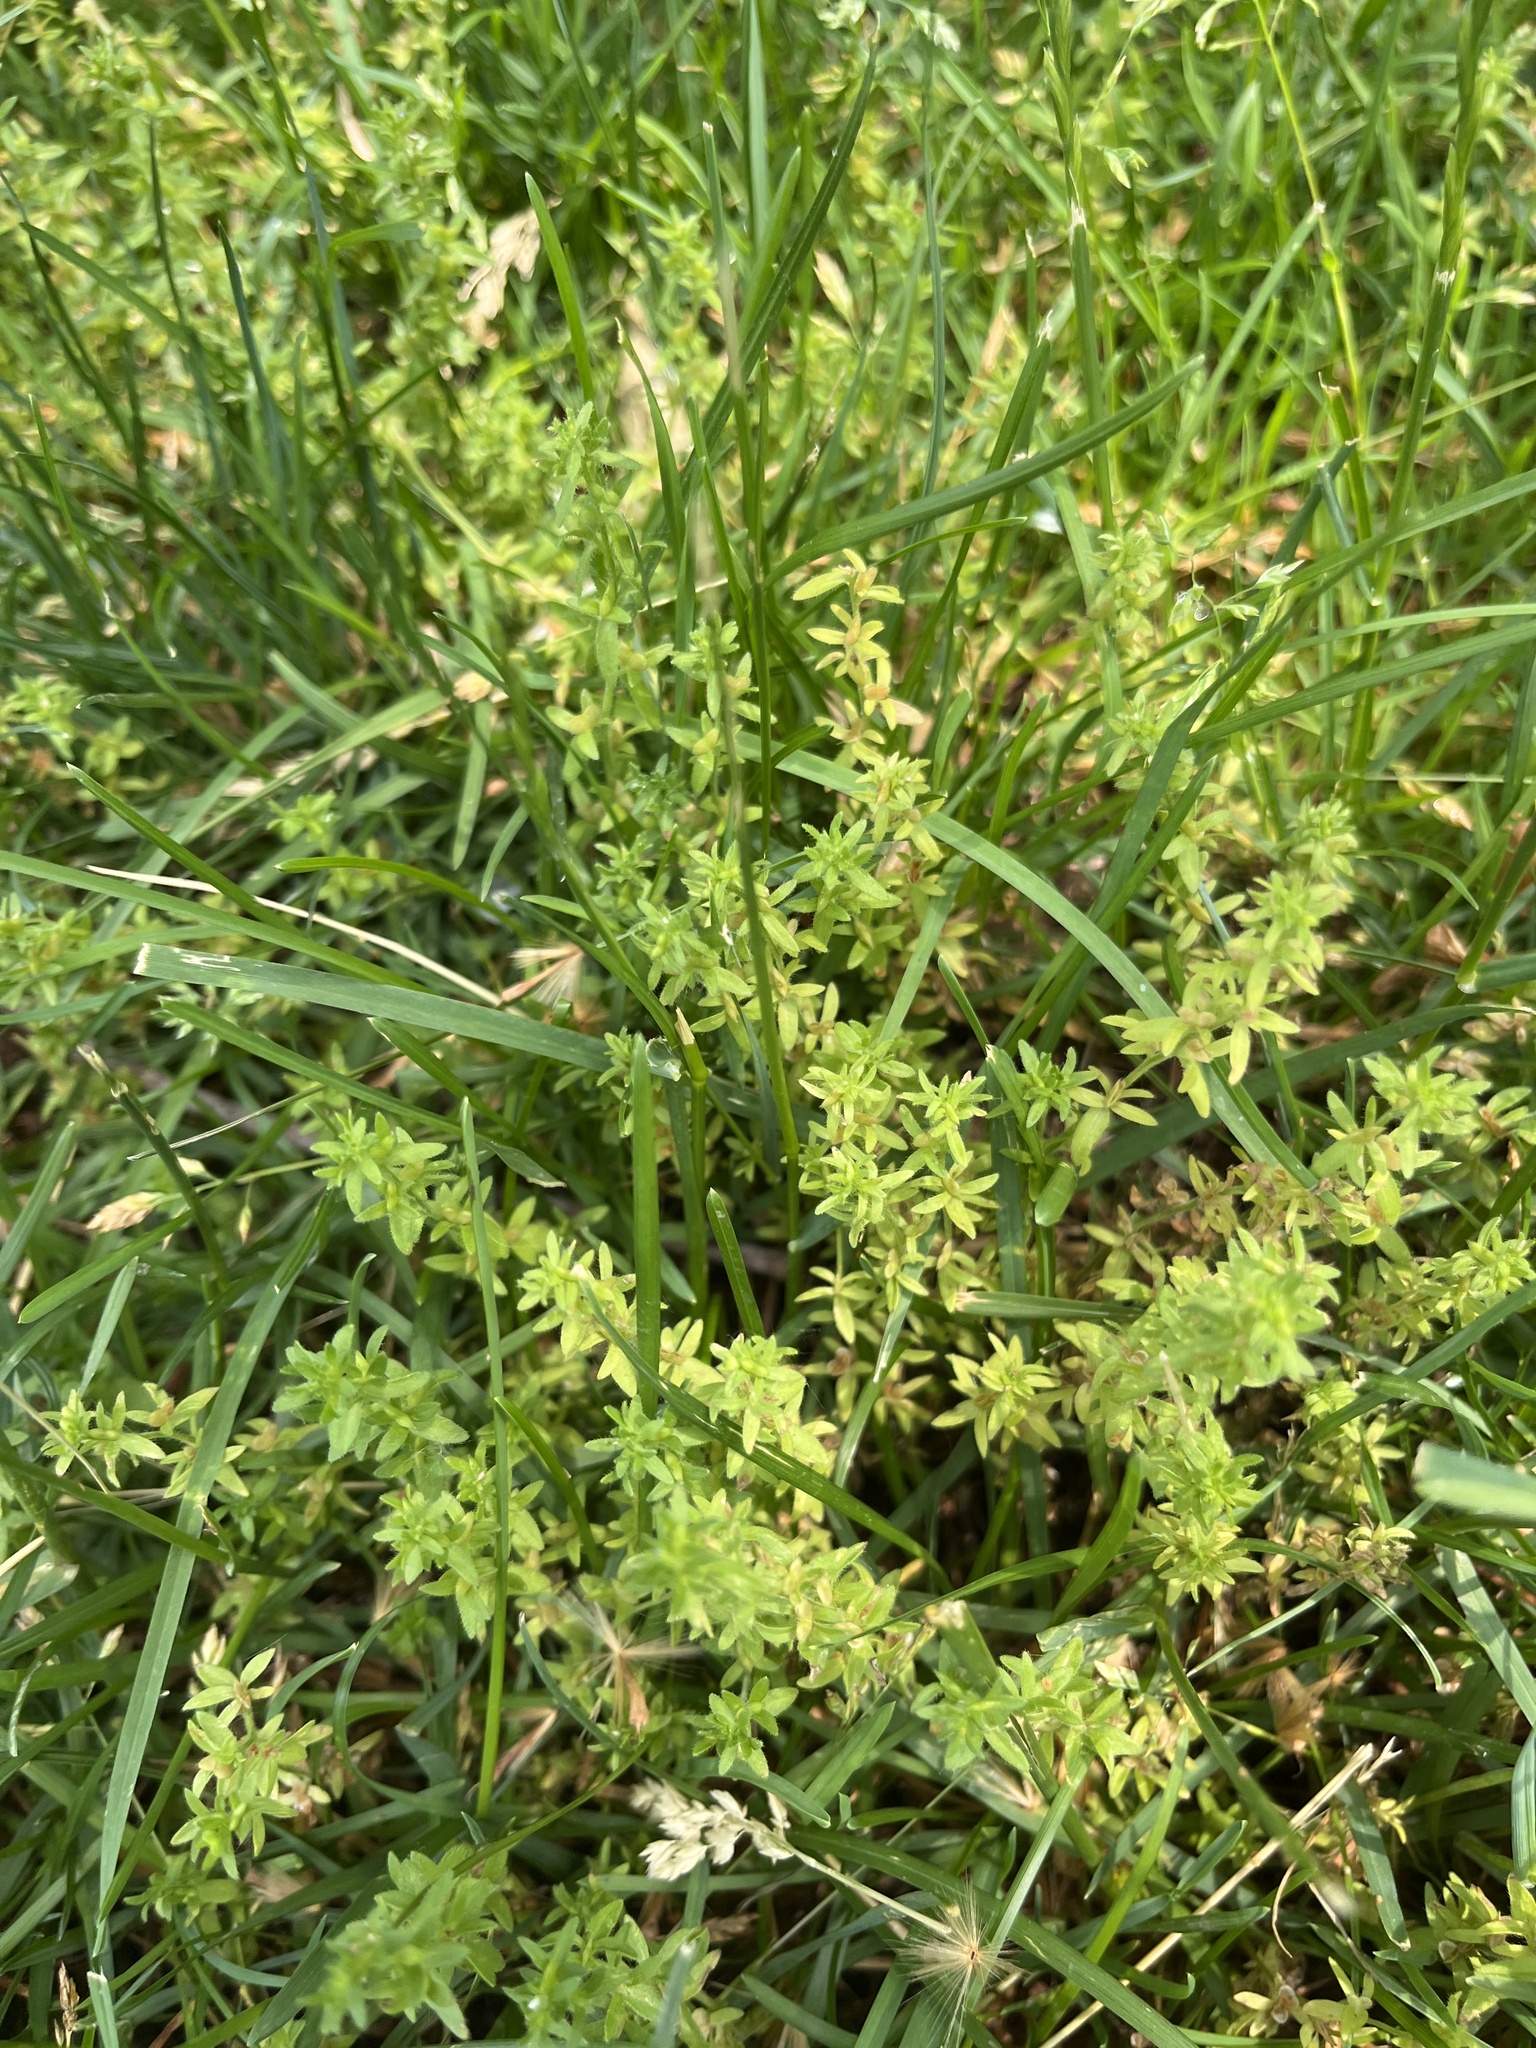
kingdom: Plantae
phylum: Tracheophyta
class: Magnoliopsida
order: Lamiales
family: Plantaginaceae
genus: Veronica
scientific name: Veronica arvensis
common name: Corn speedwell
